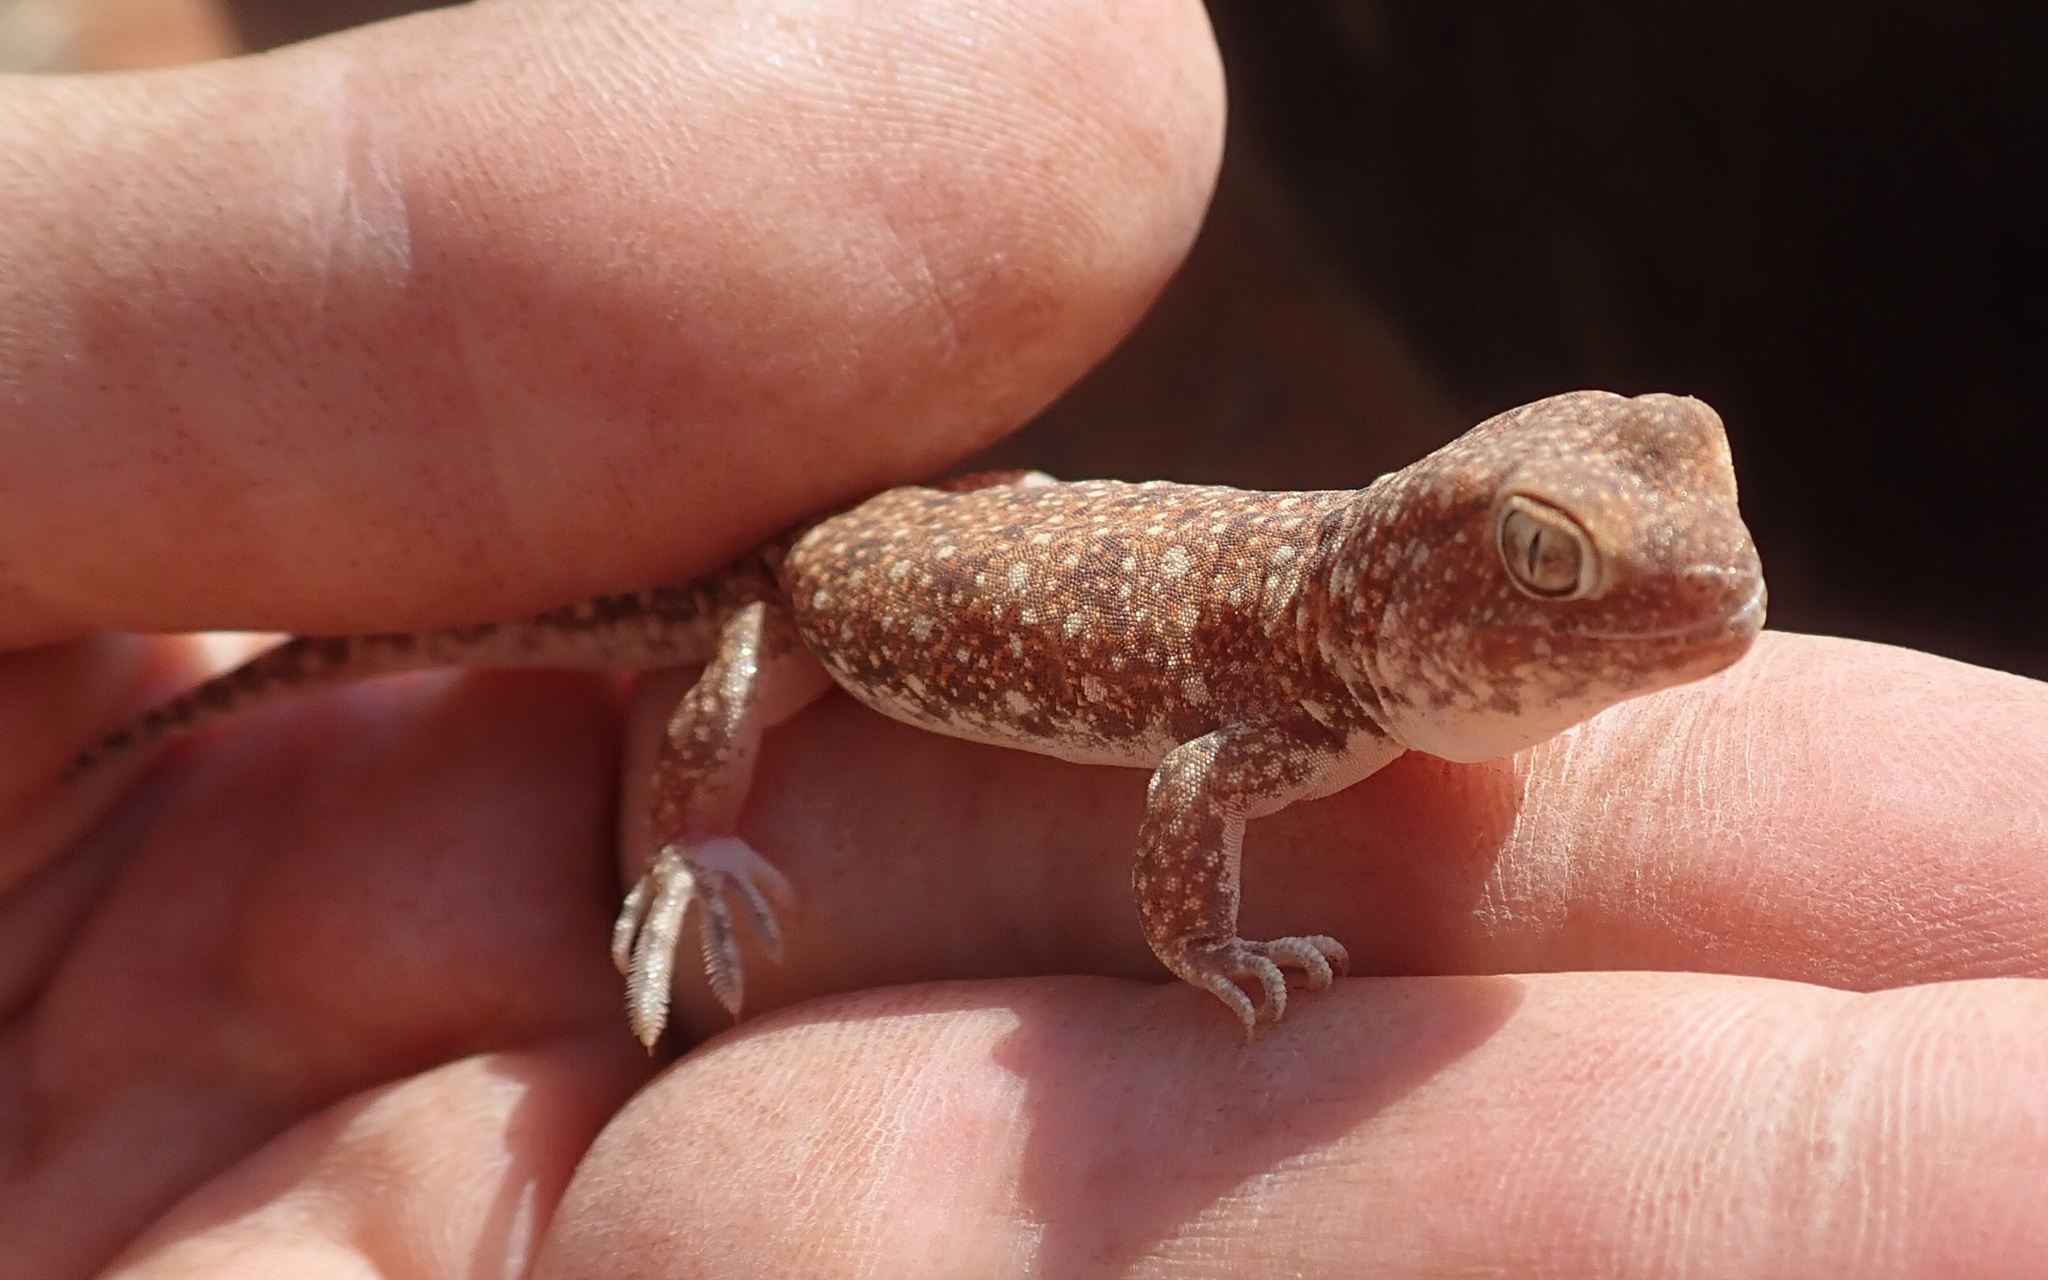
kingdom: Animalia
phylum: Chordata
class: Squamata
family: Gekkonidae
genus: Ptenopus
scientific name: Ptenopus garrulus
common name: Whistling gecko
